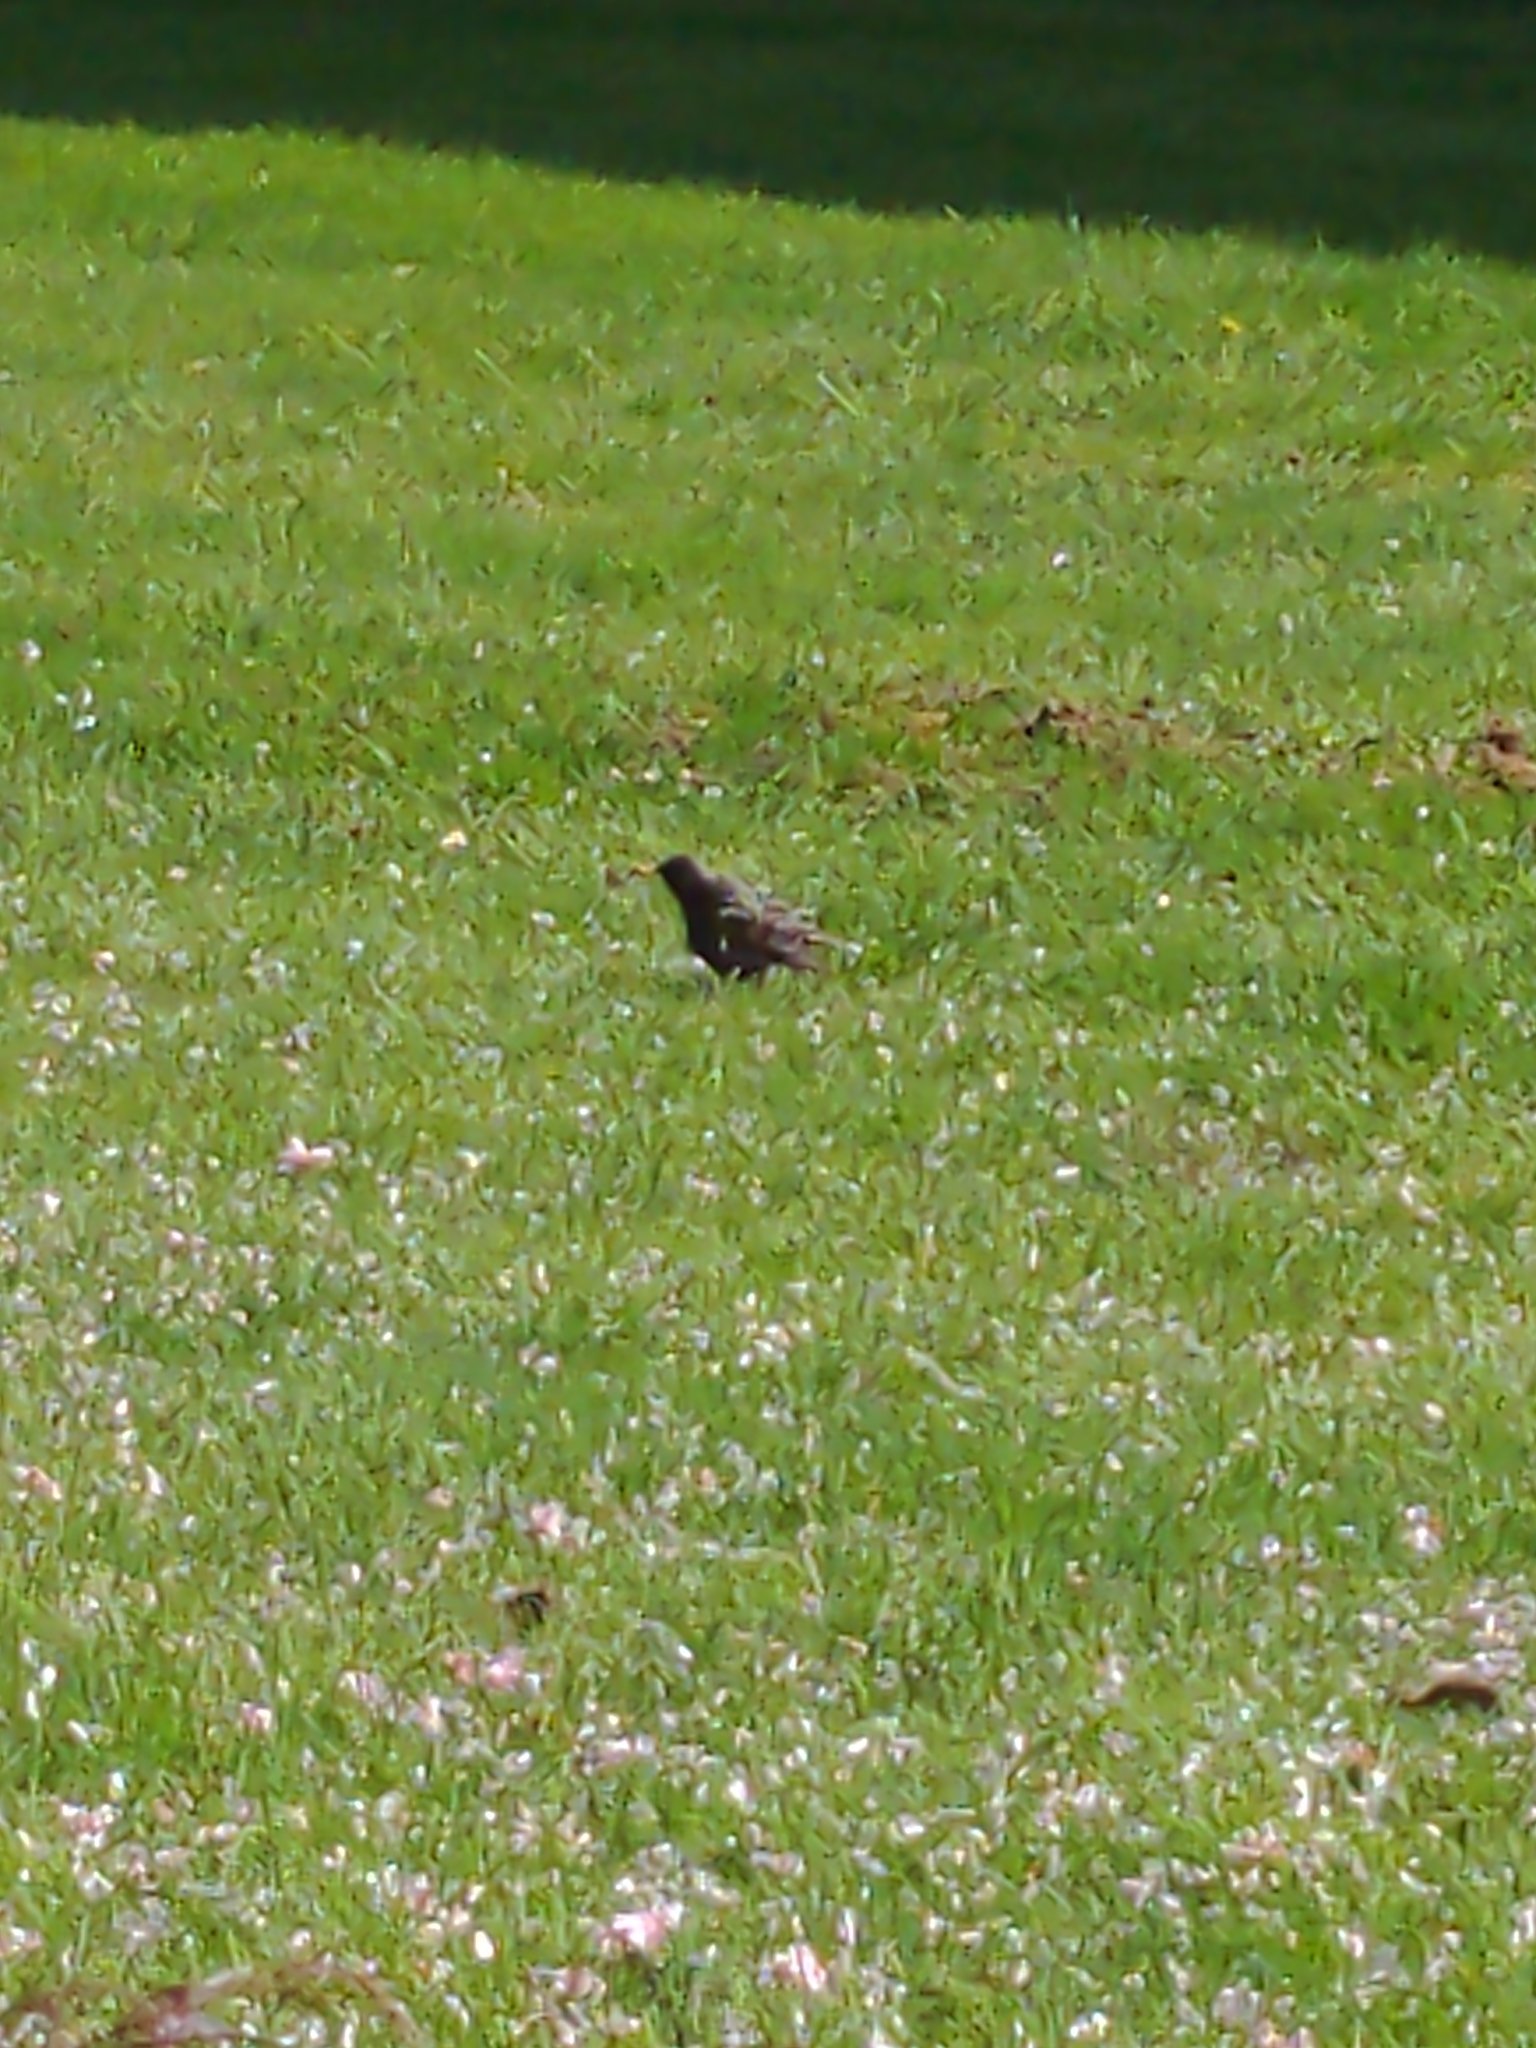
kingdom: Animalia
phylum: Chordata
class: Aves
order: Passeriformes
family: Sturnidae
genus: Sturnus
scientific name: Sturnus vulgaris
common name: Common starling
